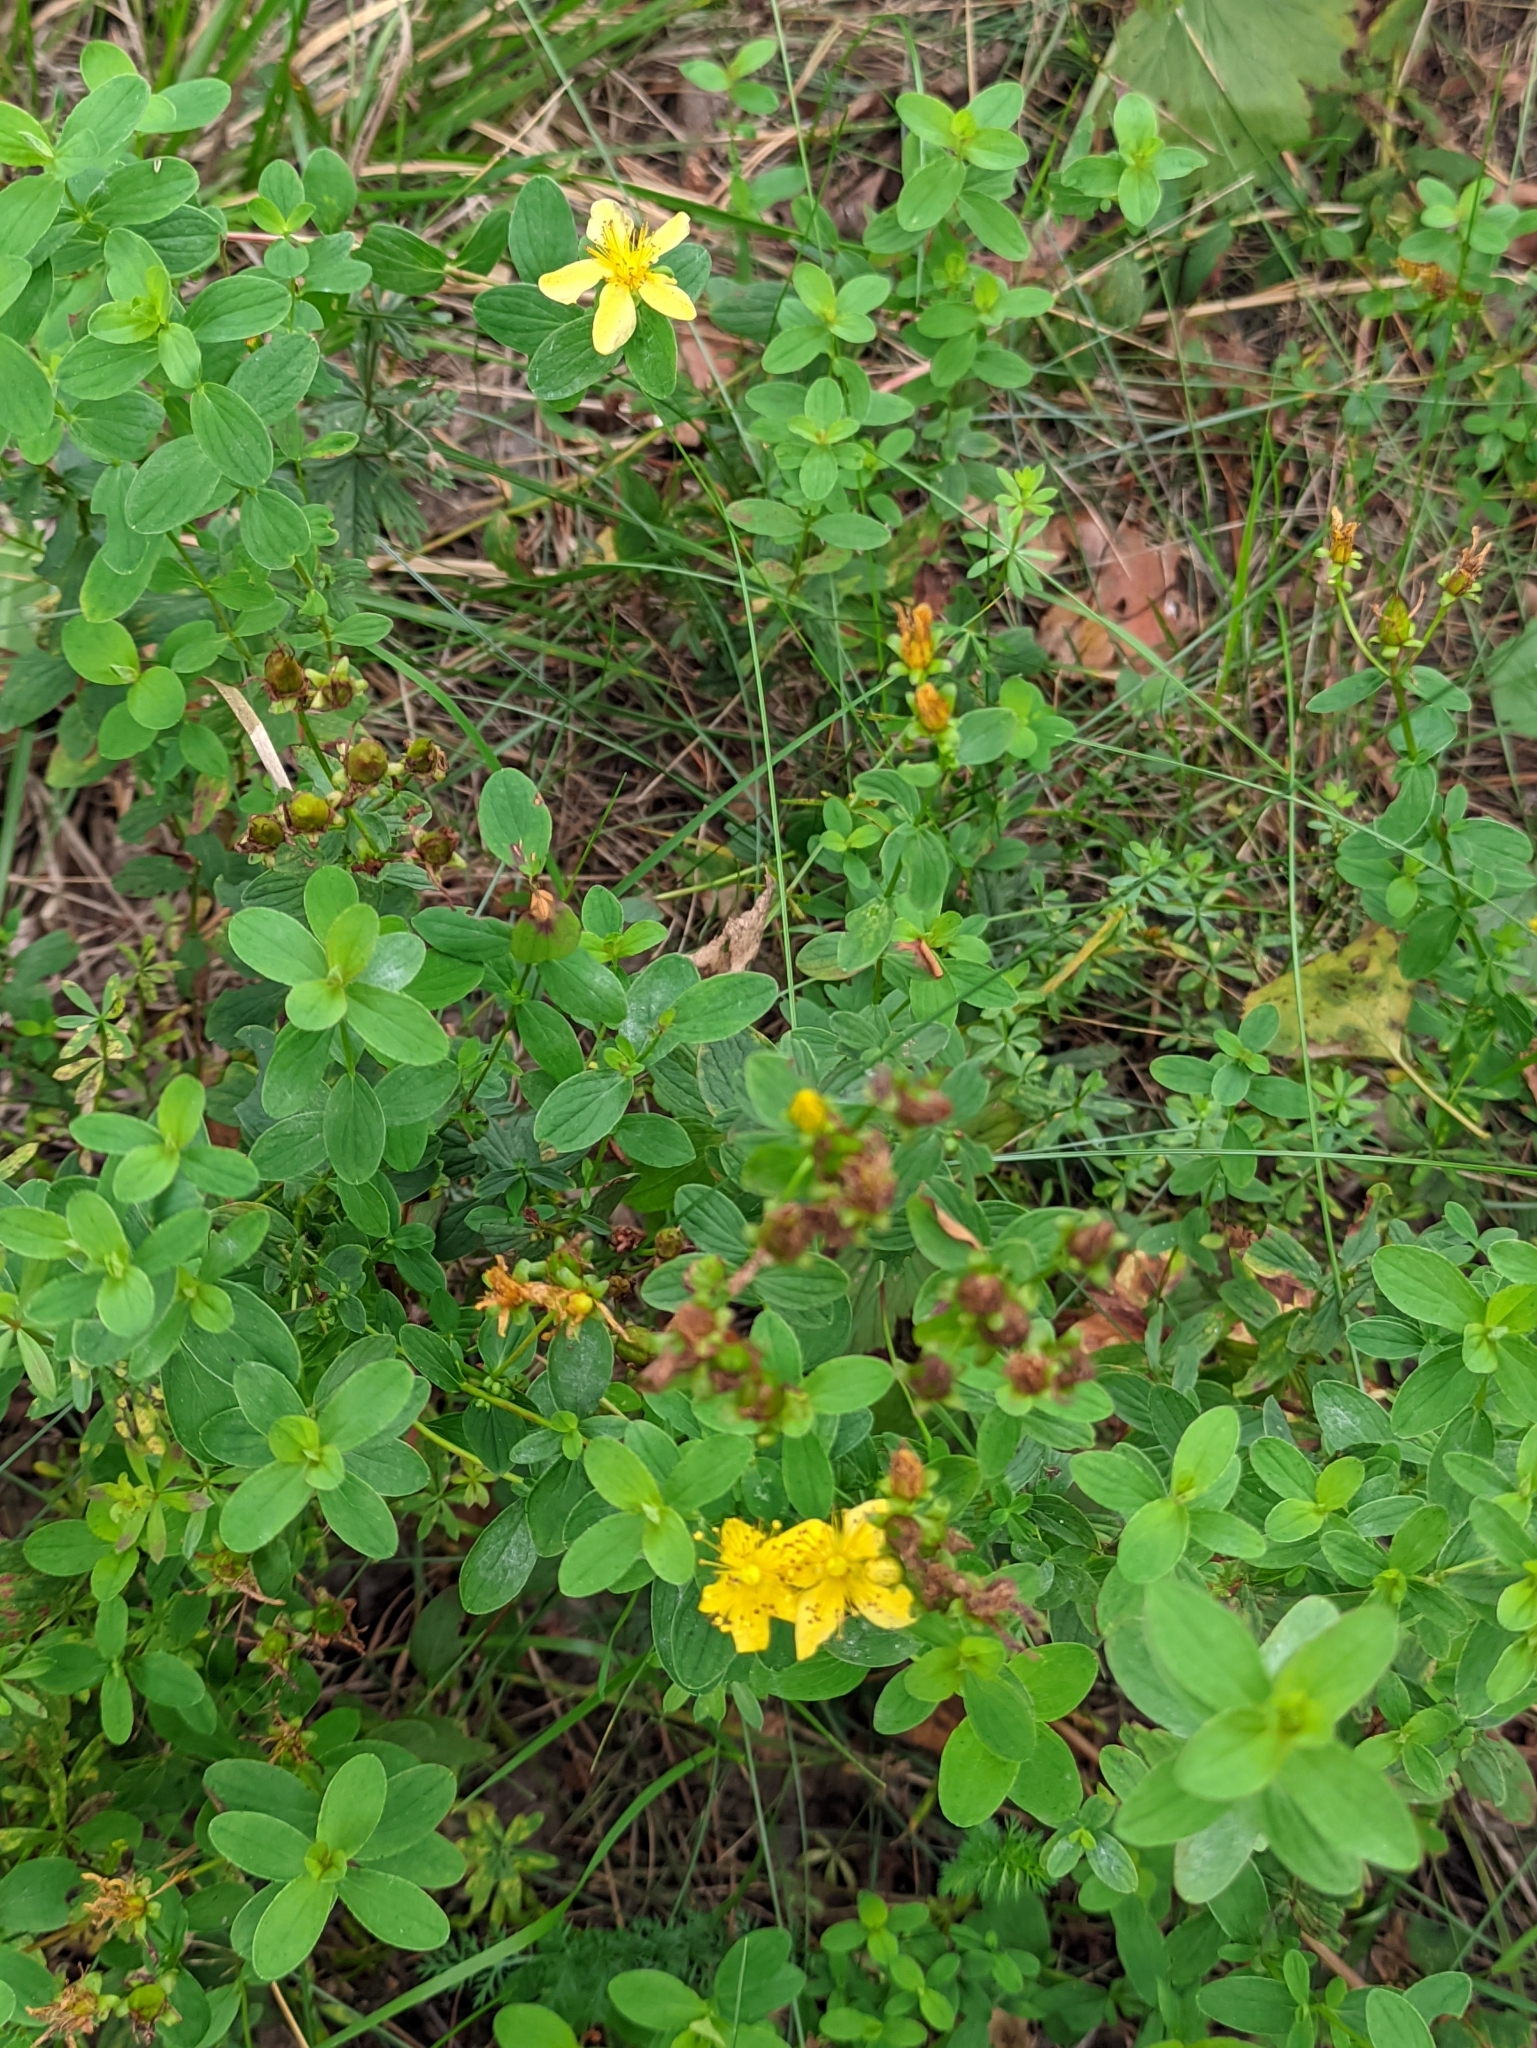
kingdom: Plantae
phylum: Tracheophyta
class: Magnoliopsida
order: Malpighiales
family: Hypericaceae
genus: Hypericum
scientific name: Hypericum maculatum
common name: Imperforate st. john's-wort
